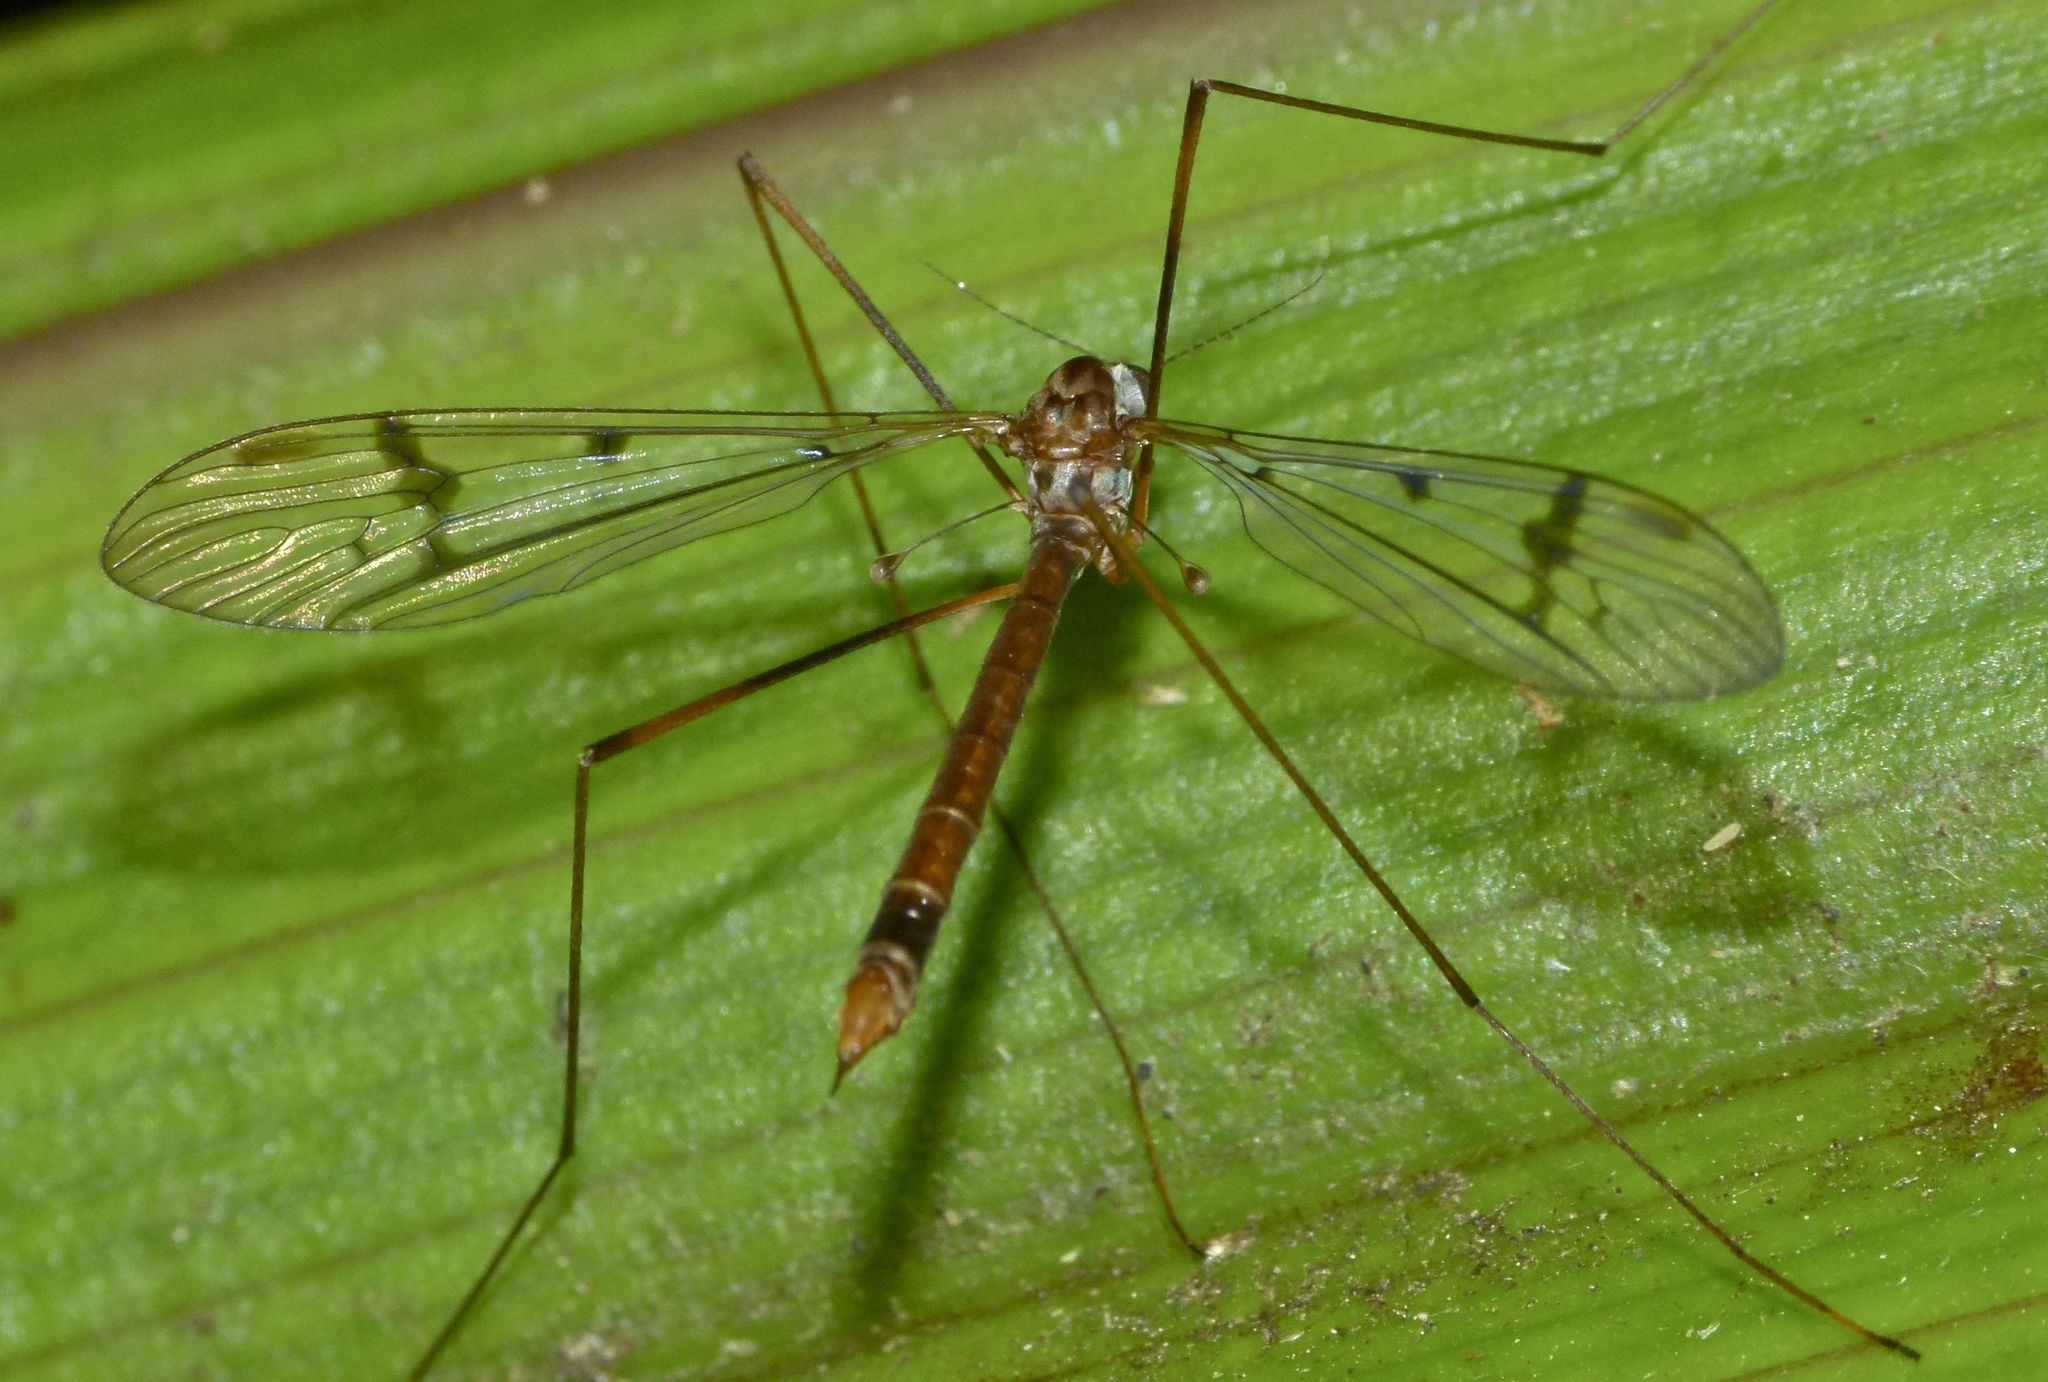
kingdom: Animalia
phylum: Arthropoda
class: Insecta
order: Diptera
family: Limoniidae
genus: Limnophilella
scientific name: Limnophilella serotina
